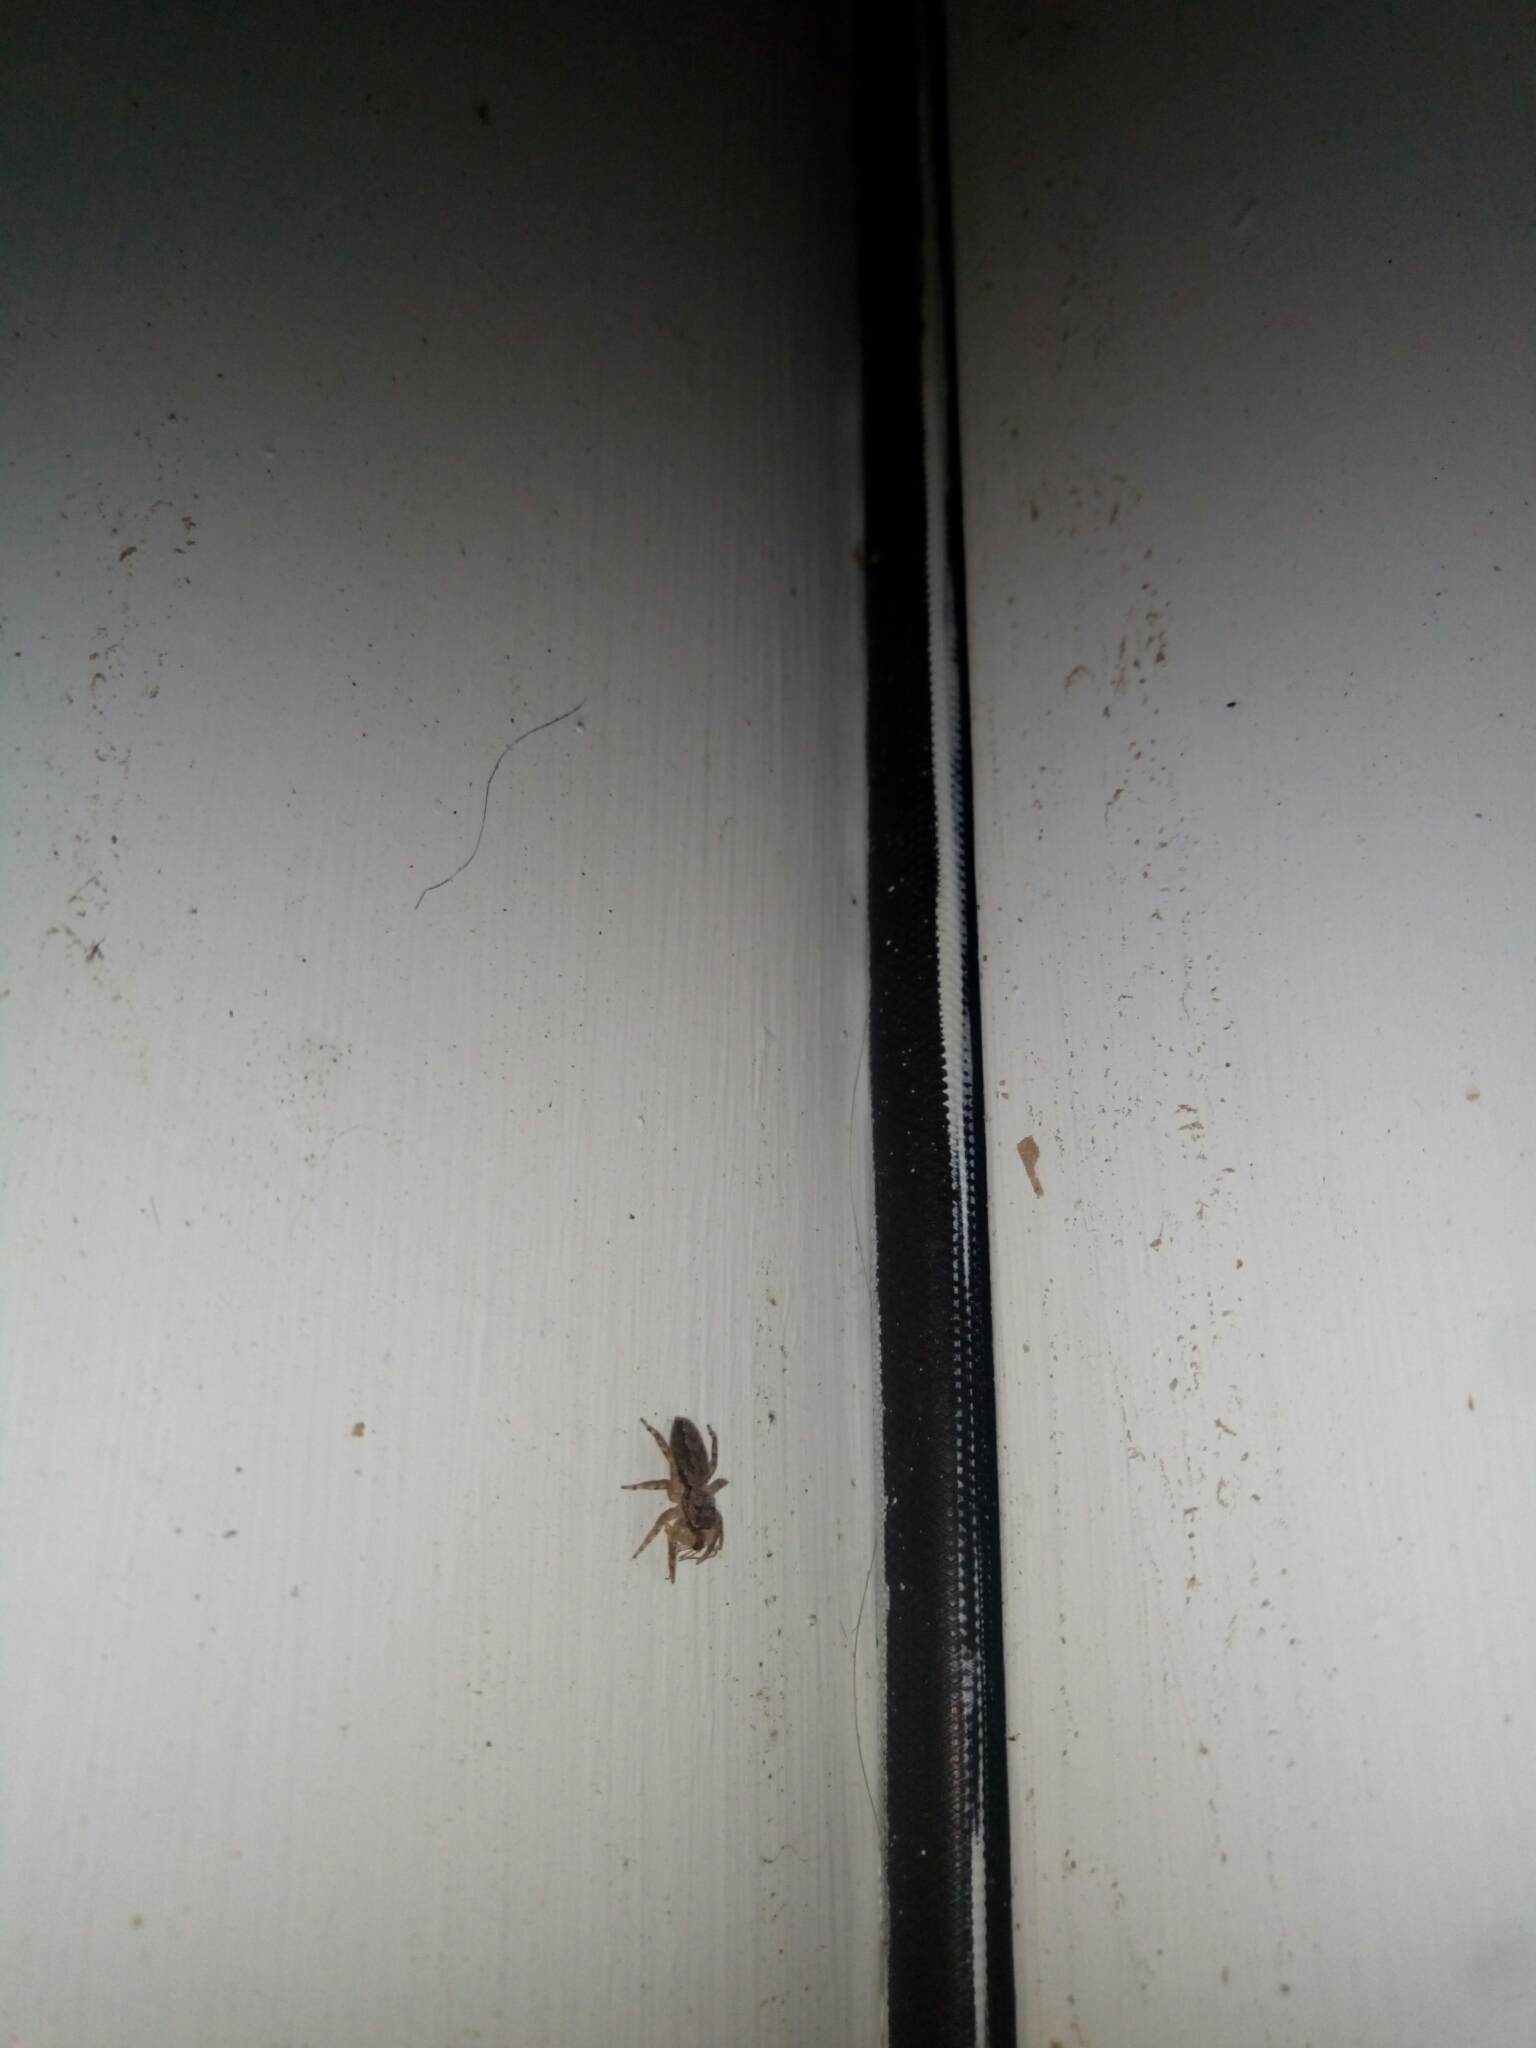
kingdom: Animalia
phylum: Arthropoda
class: Arachnida
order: Araneae
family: Salticidae
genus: Platycryptus
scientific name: Platycryptus undatus
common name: Tan jumping spider
